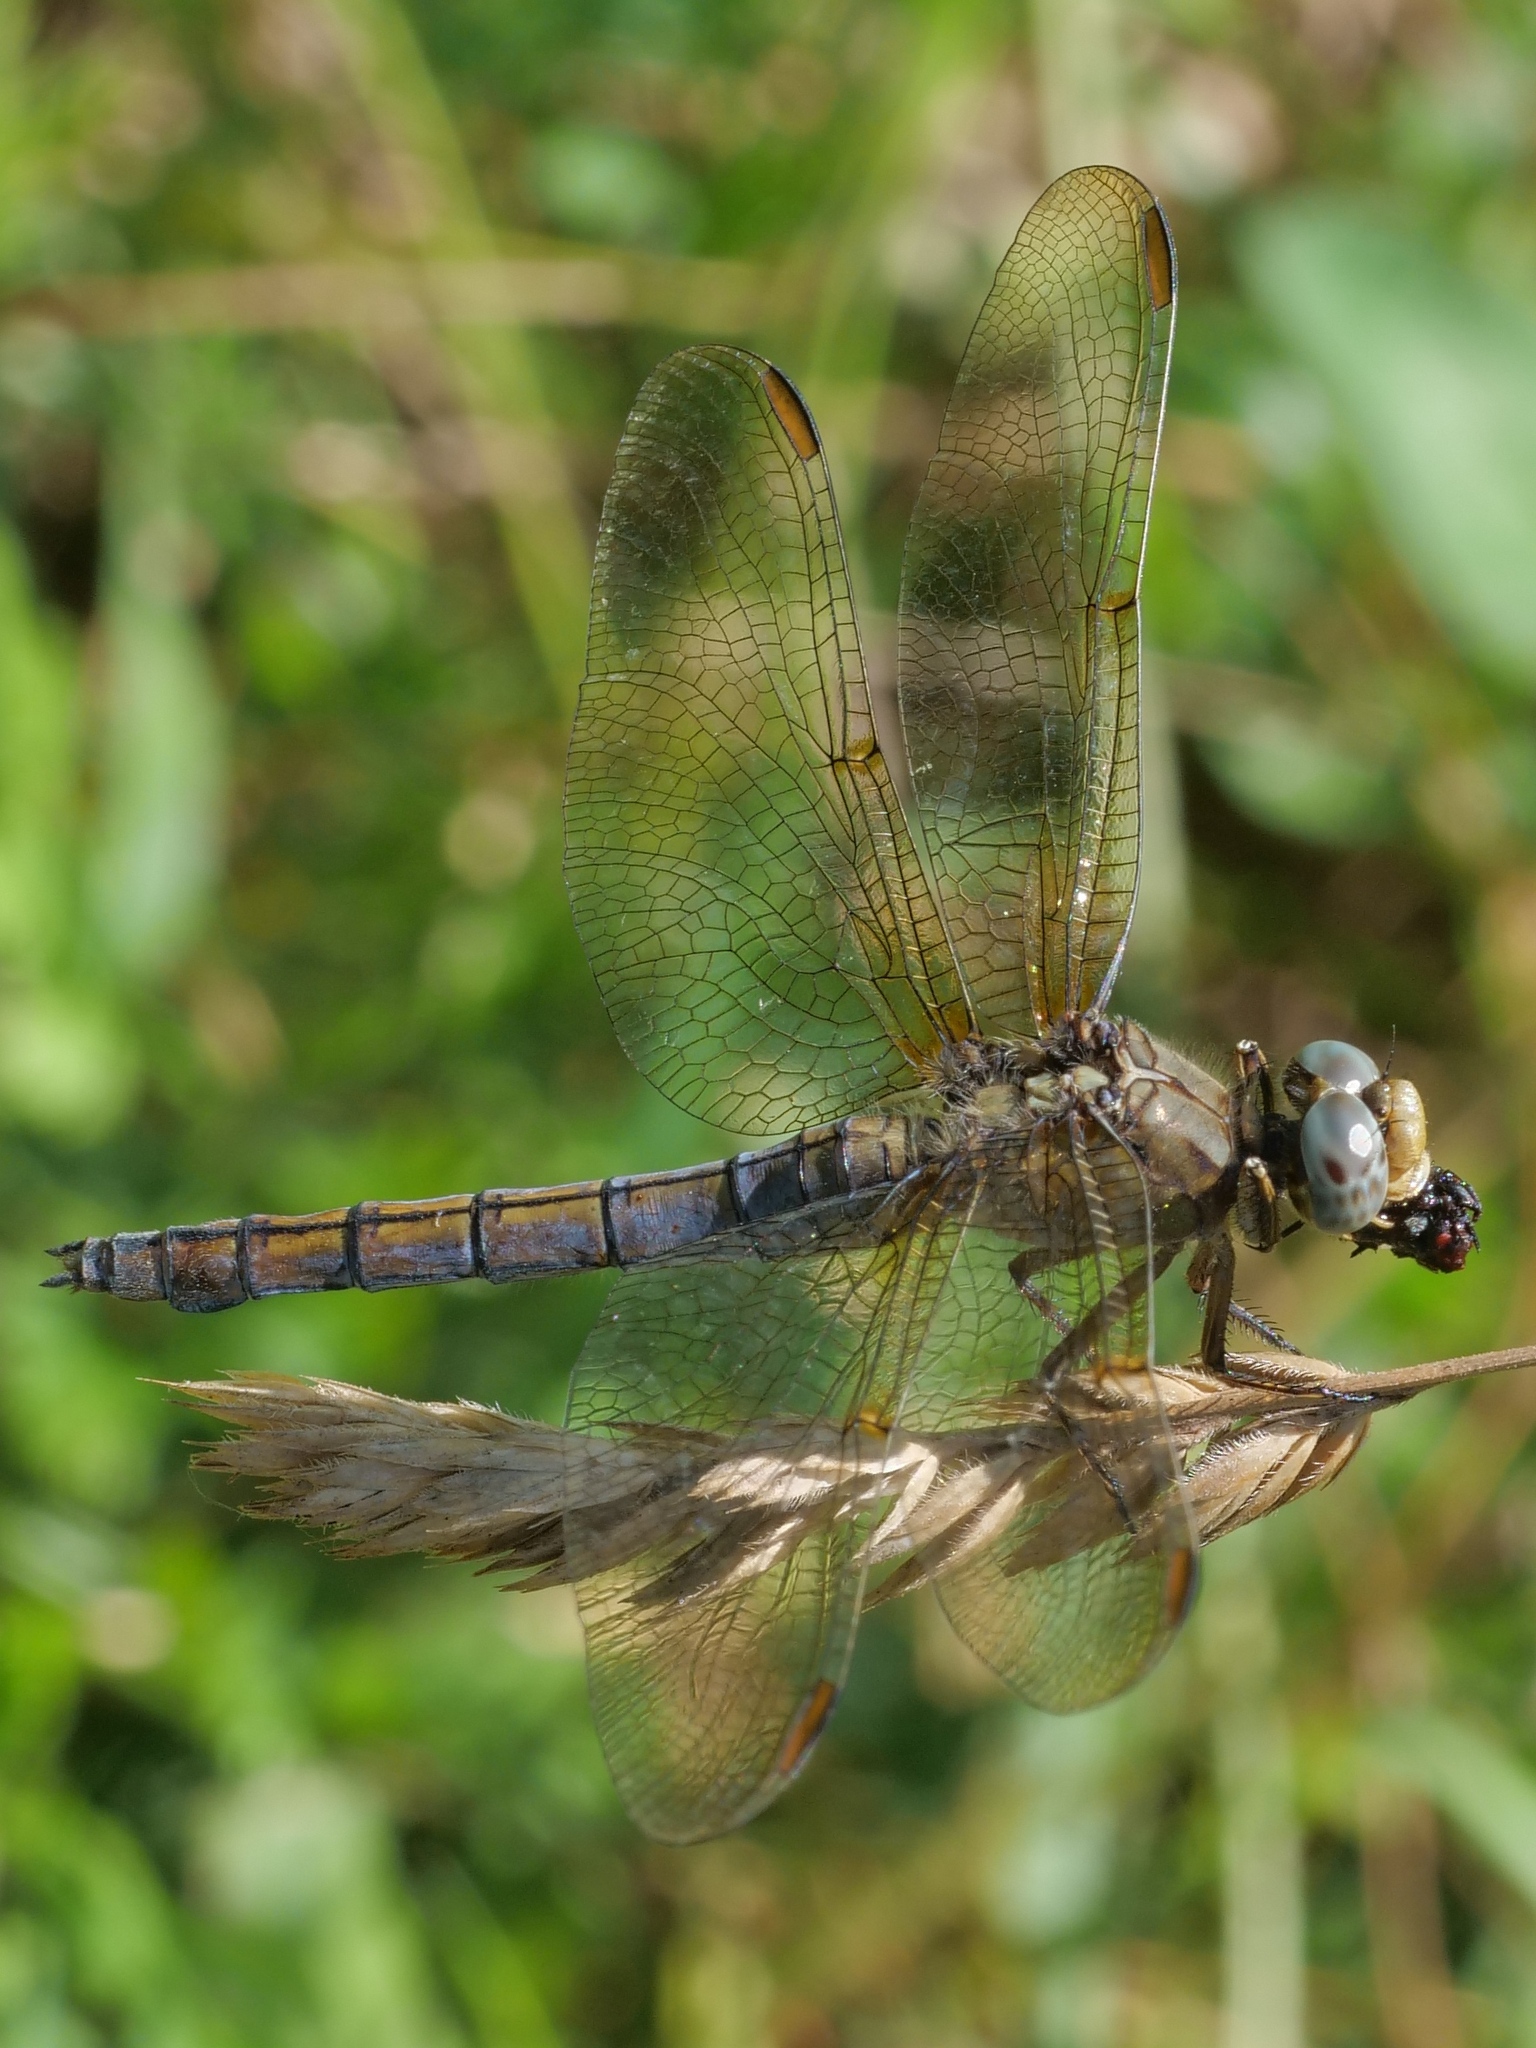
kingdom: Animalia
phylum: Arthropoda
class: Insecta
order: Odonata
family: Libellulidae
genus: Orthetrum
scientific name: Orthetrum coerulescens
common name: Keeled skimmer
